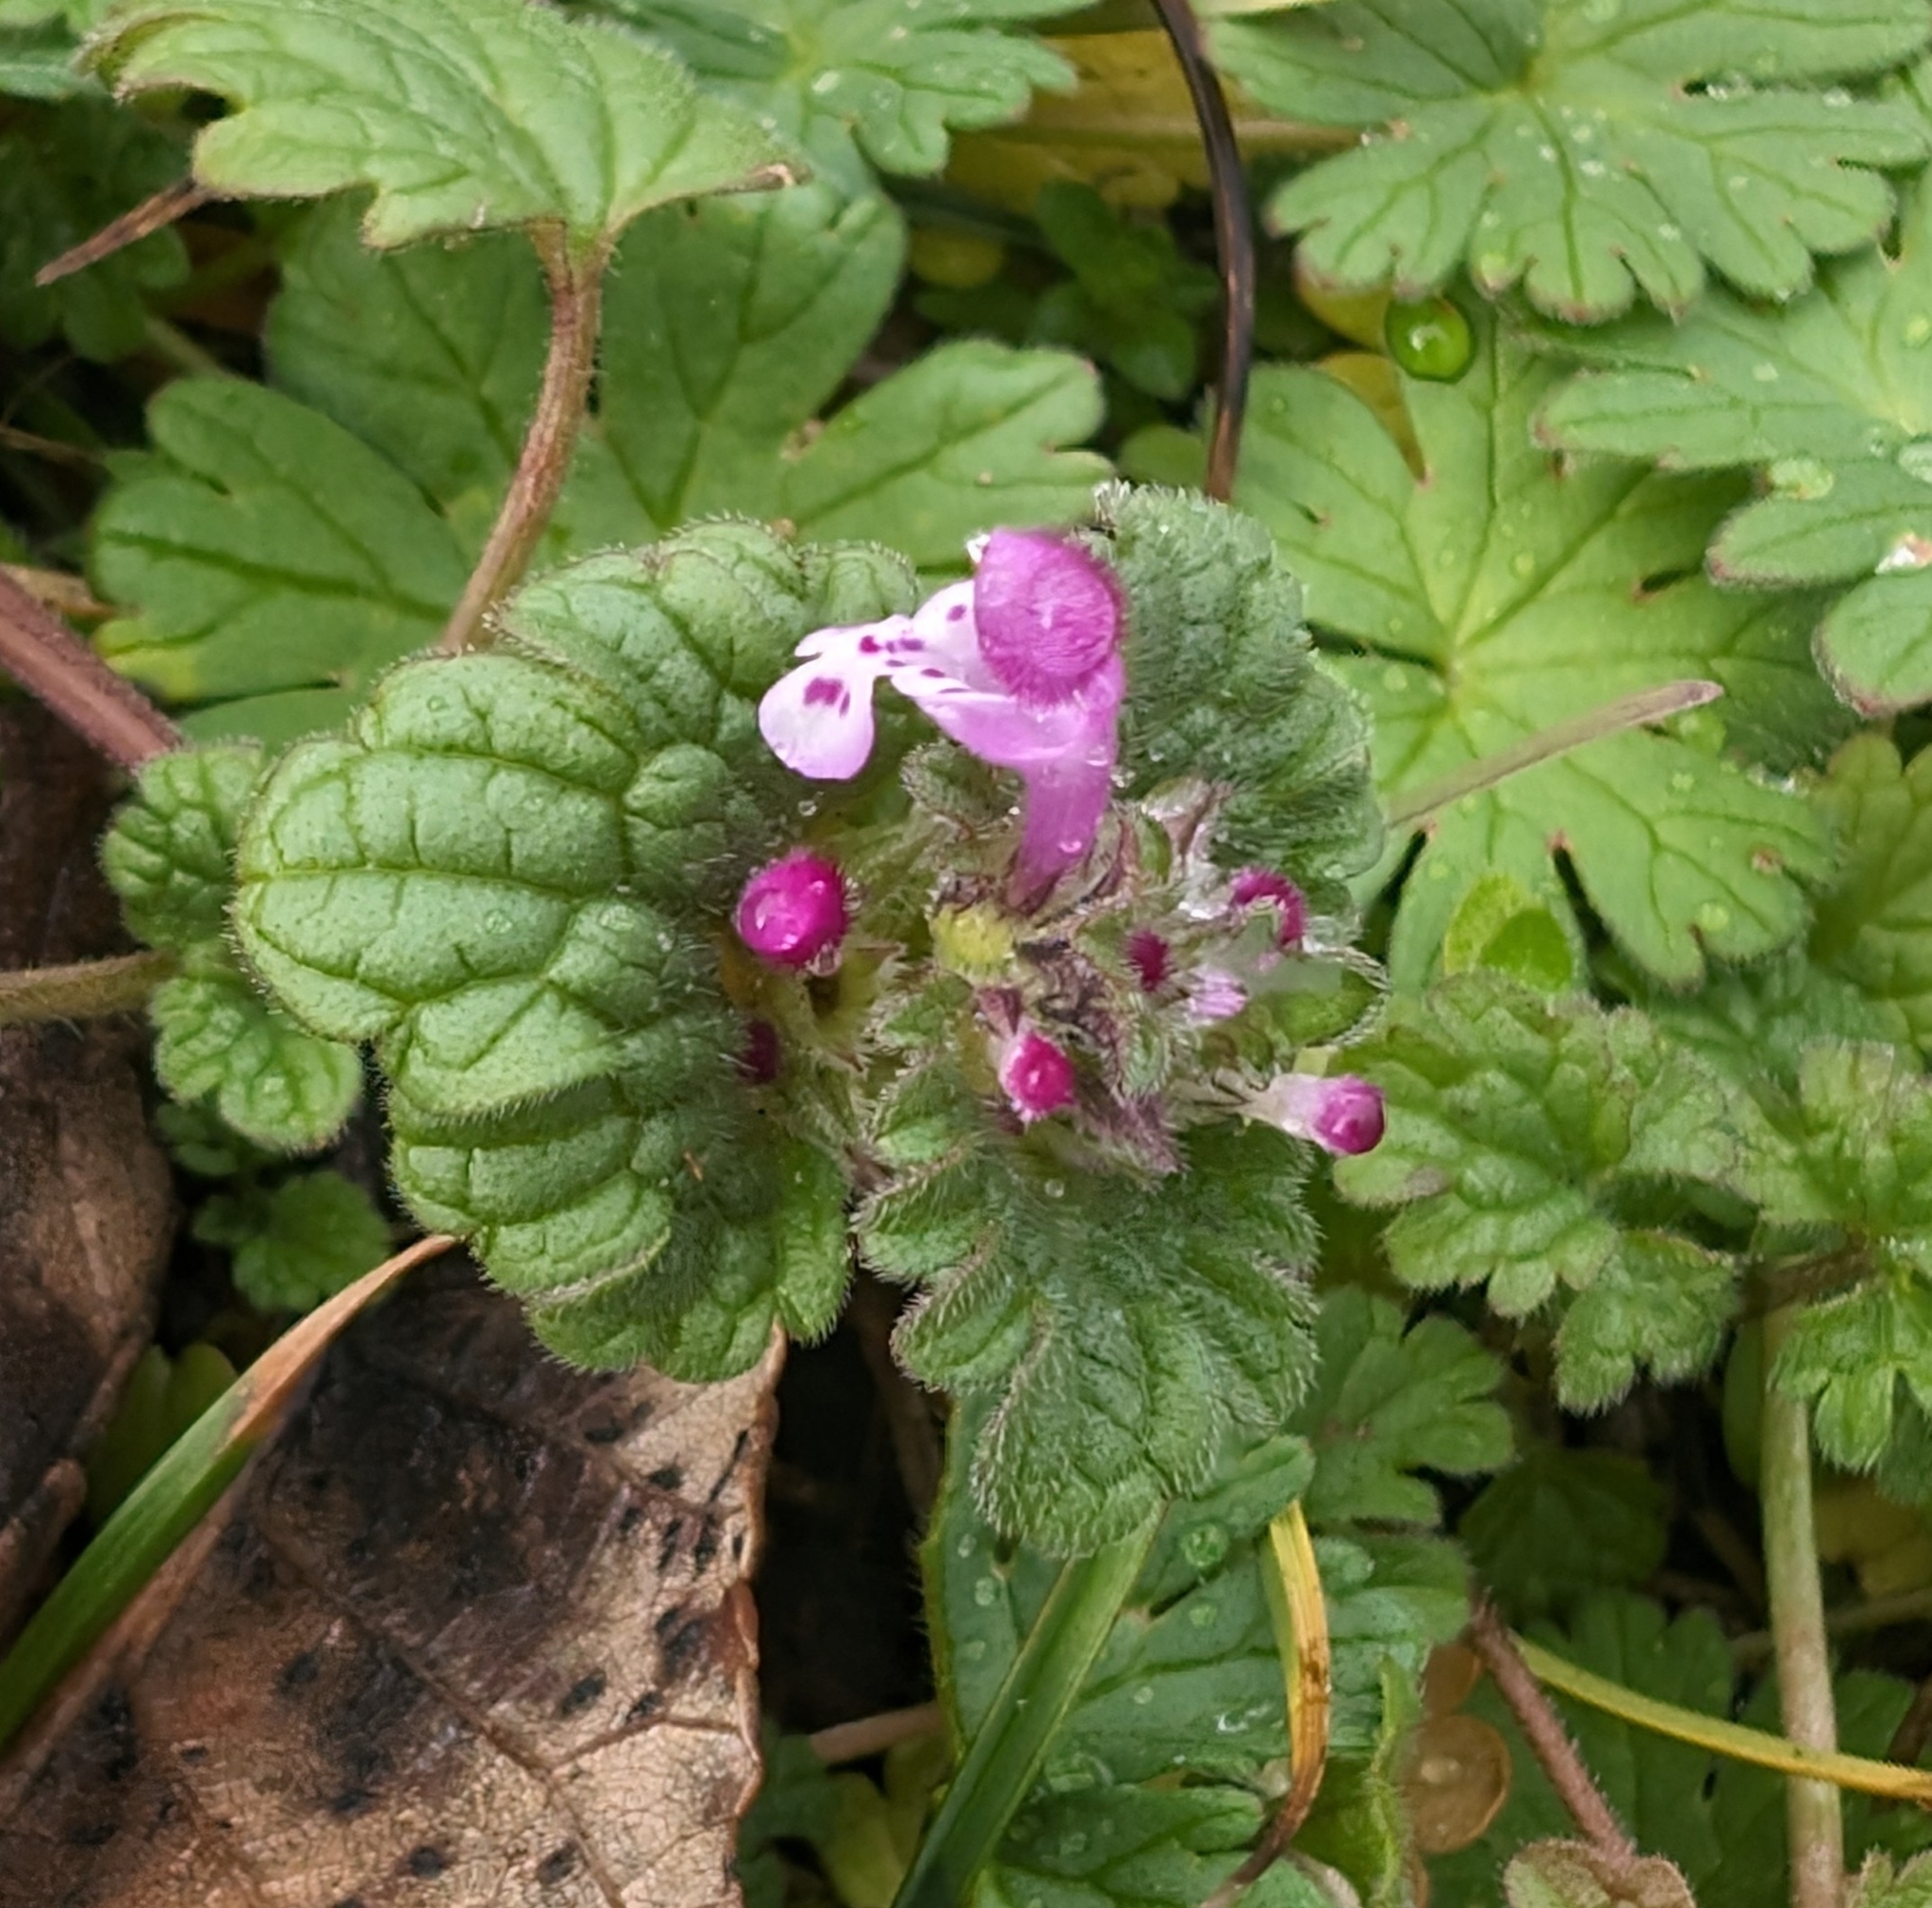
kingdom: Plantae
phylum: Tracheophyta
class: Magnoliopsida
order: Lamiales
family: Lamiaceae
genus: Lamium
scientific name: Lamium amplexicaule
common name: Henbit dead-nettle
